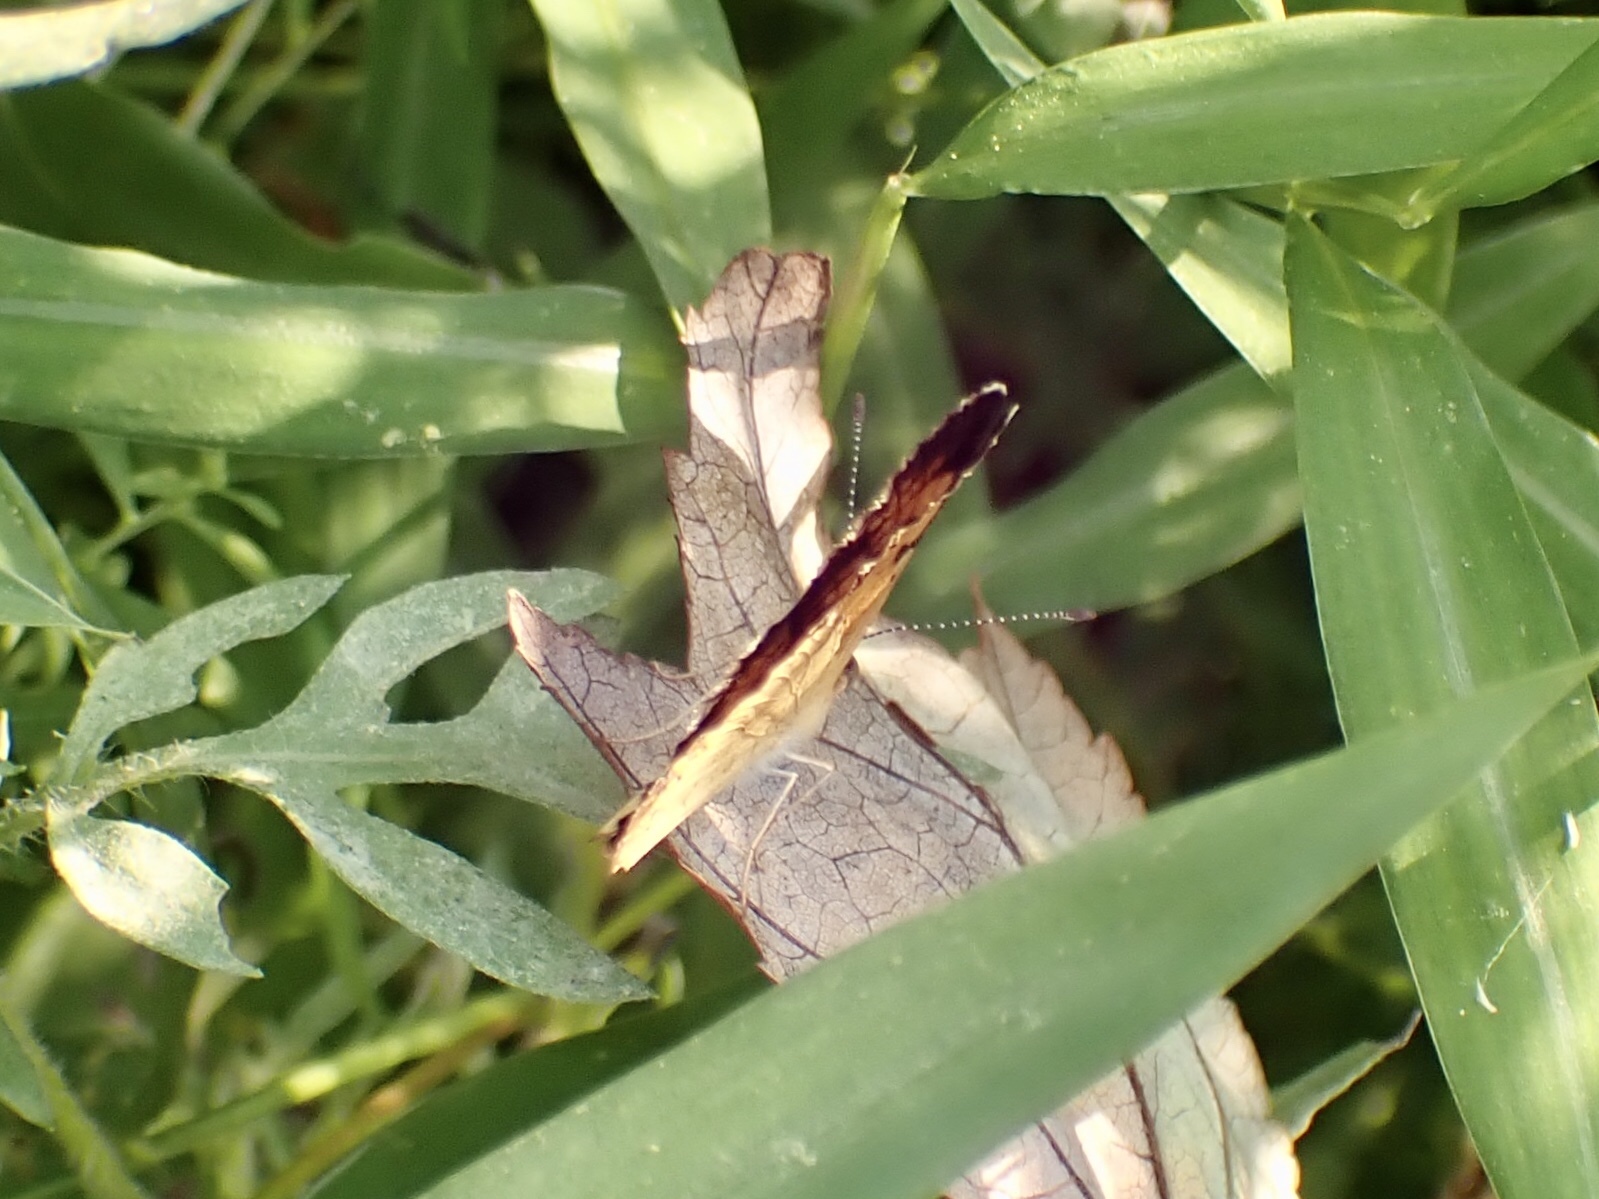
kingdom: Animalia
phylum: Arthropoda
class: Insecta
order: Lepidoptera
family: Nymphalidae
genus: Phyciodes
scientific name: Phyciodes tharos
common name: Pearl crescent
